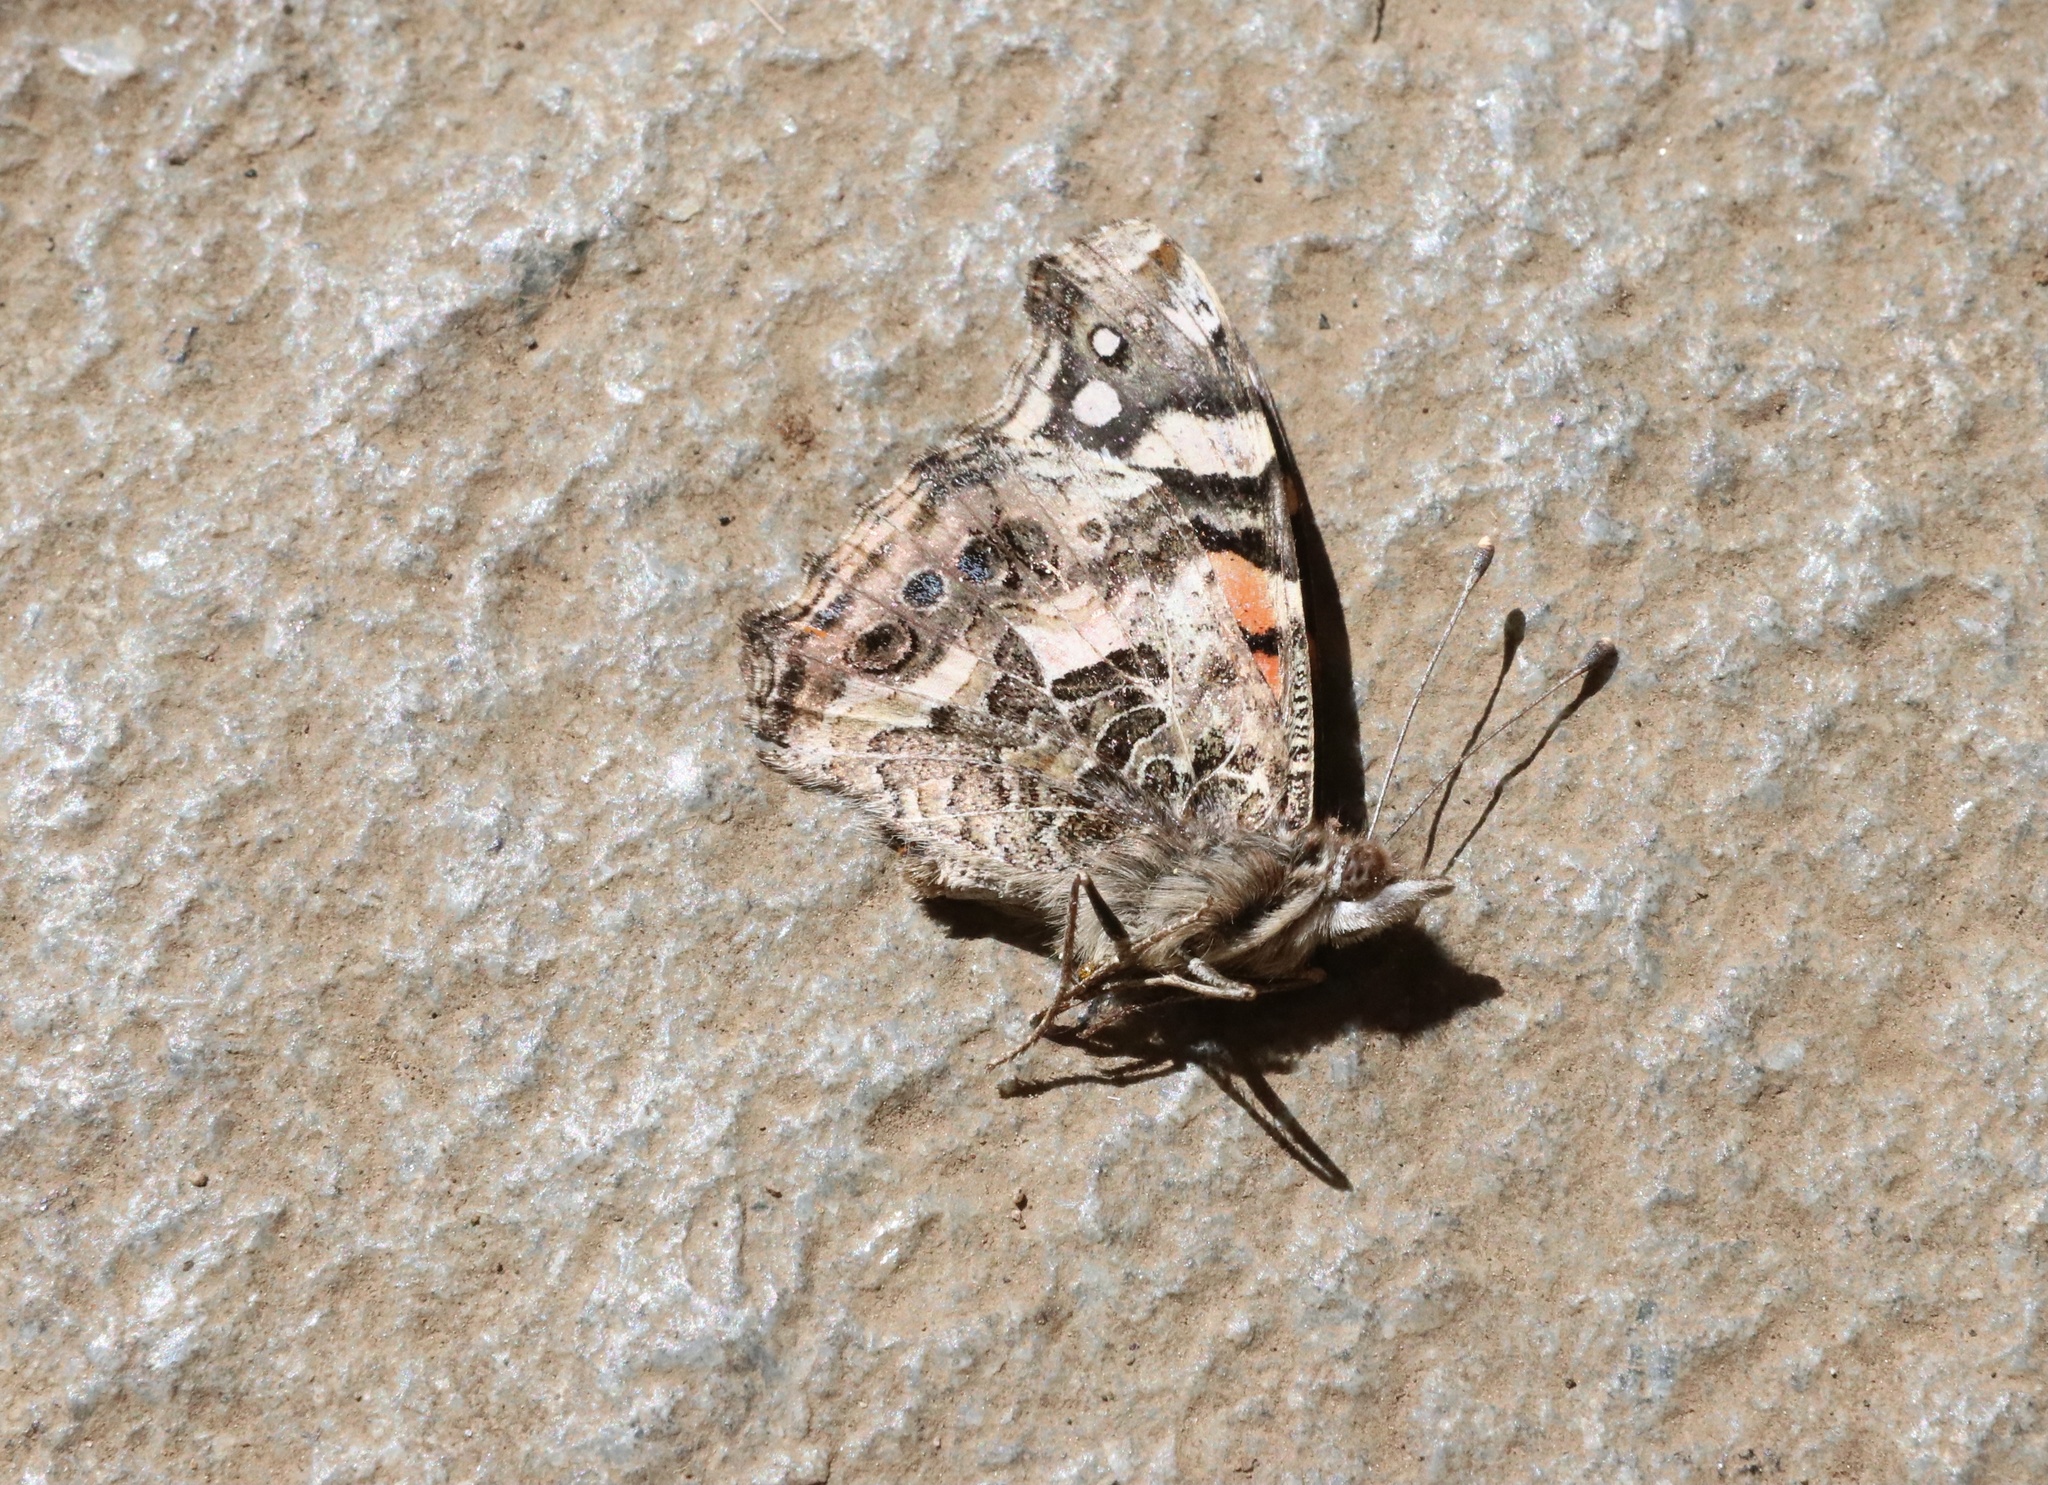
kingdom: Animalia
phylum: Arthropoda
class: Insecta
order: Lepidoptera
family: Nymphalidae
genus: Vanessa
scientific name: Vanessa carye
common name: Subtropical lady
